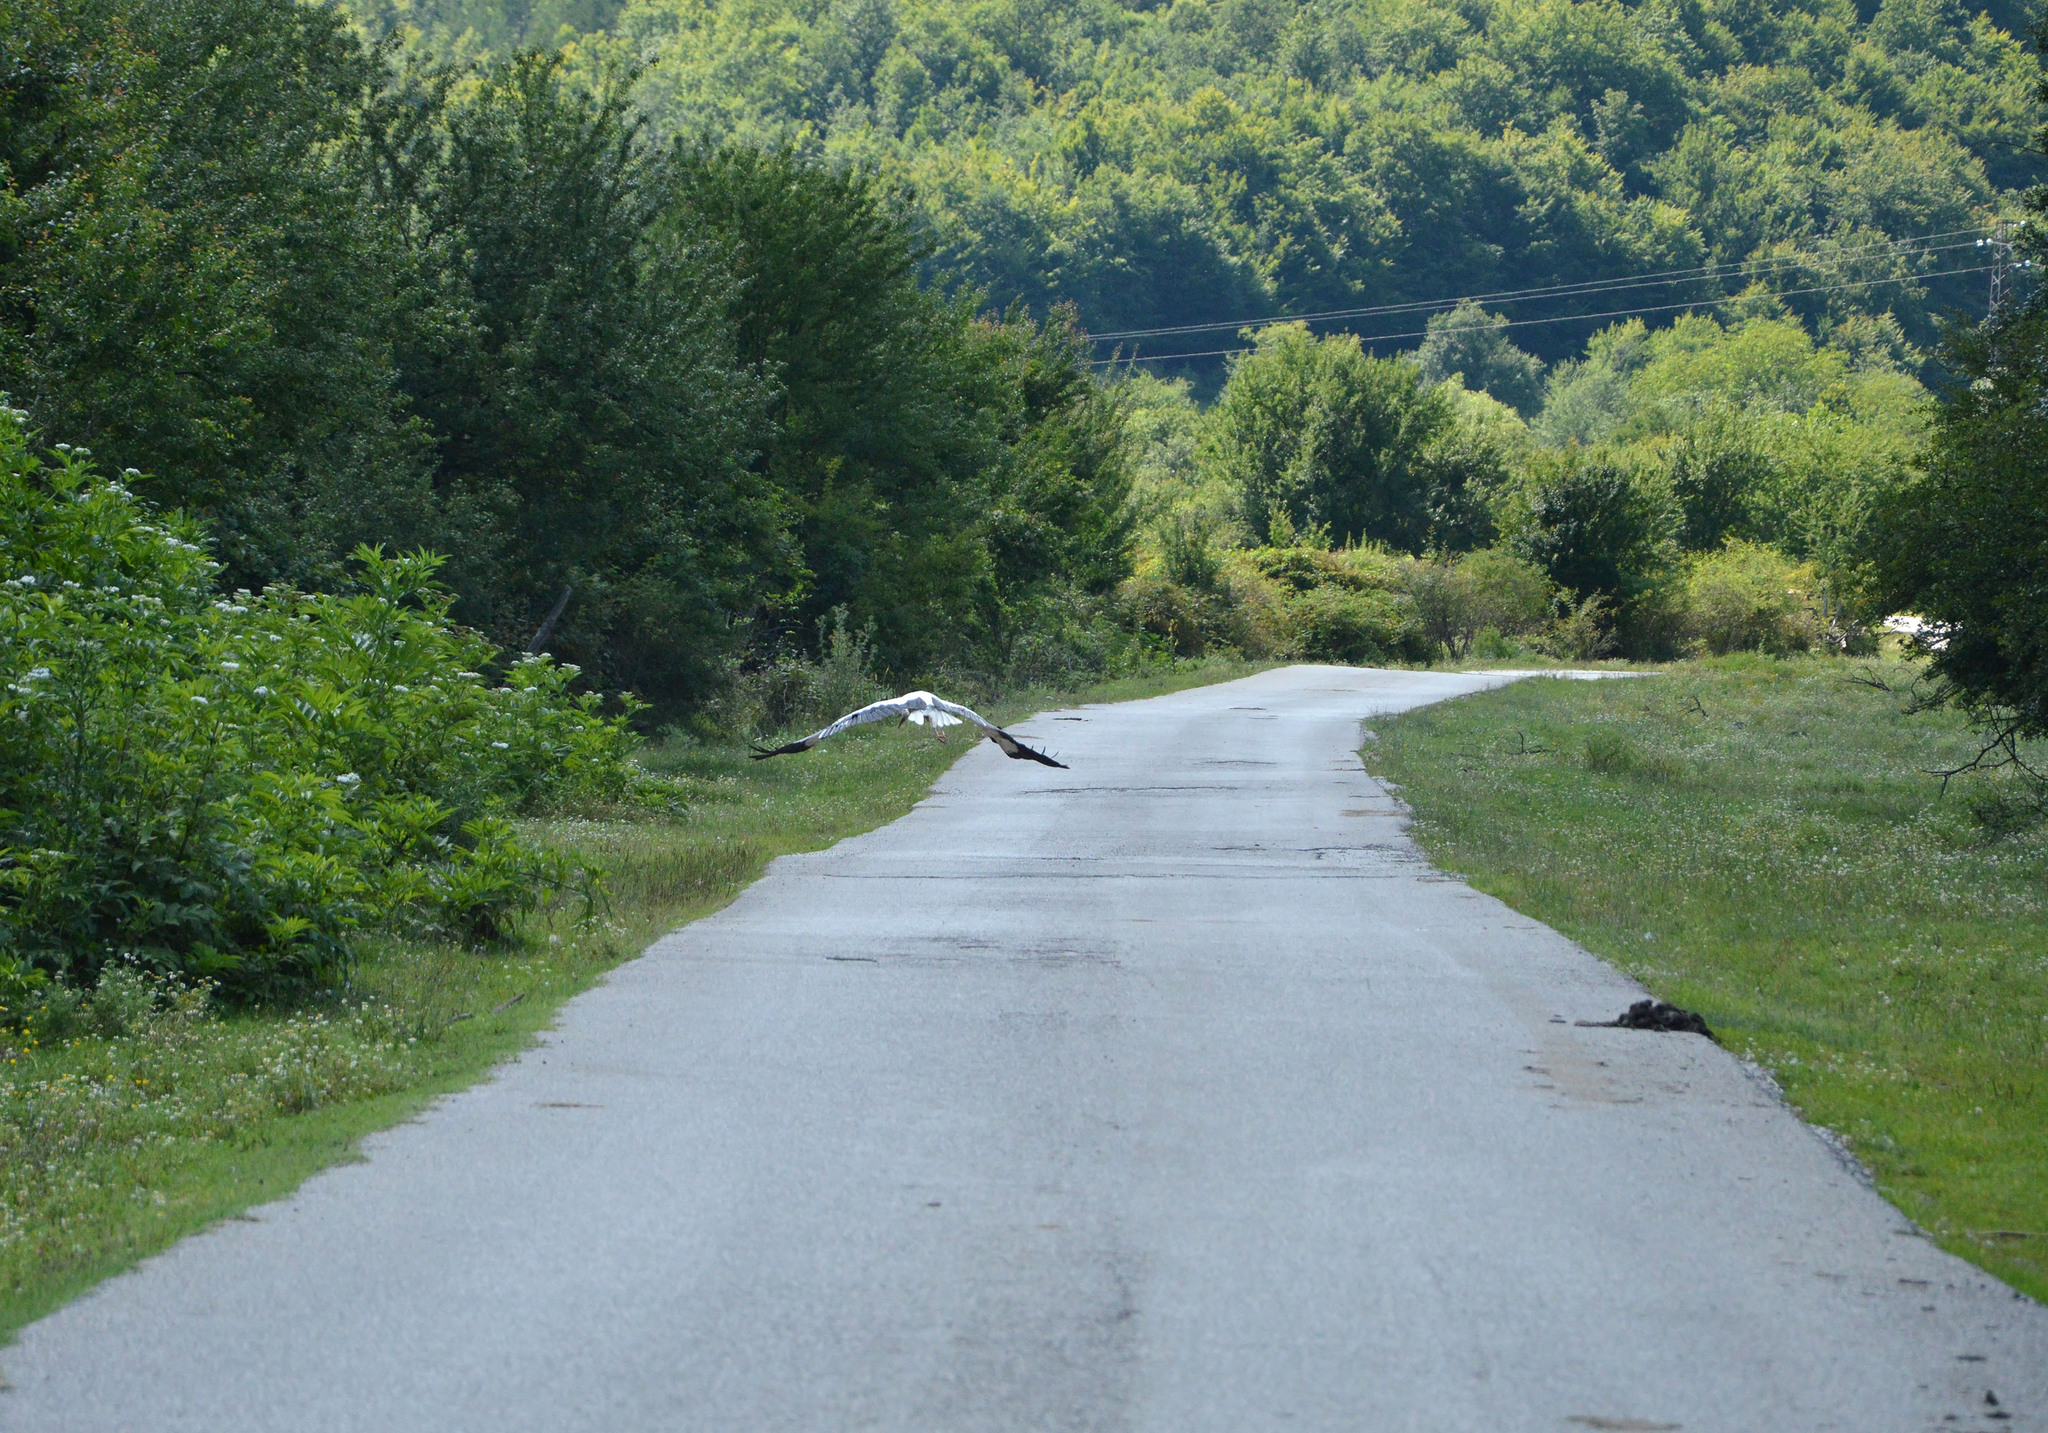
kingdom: Animalia
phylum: Chordata
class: Aves
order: Ciconiiformes
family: Ciconiidae
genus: Ciconia
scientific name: Ciconia ciconia
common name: White stork
